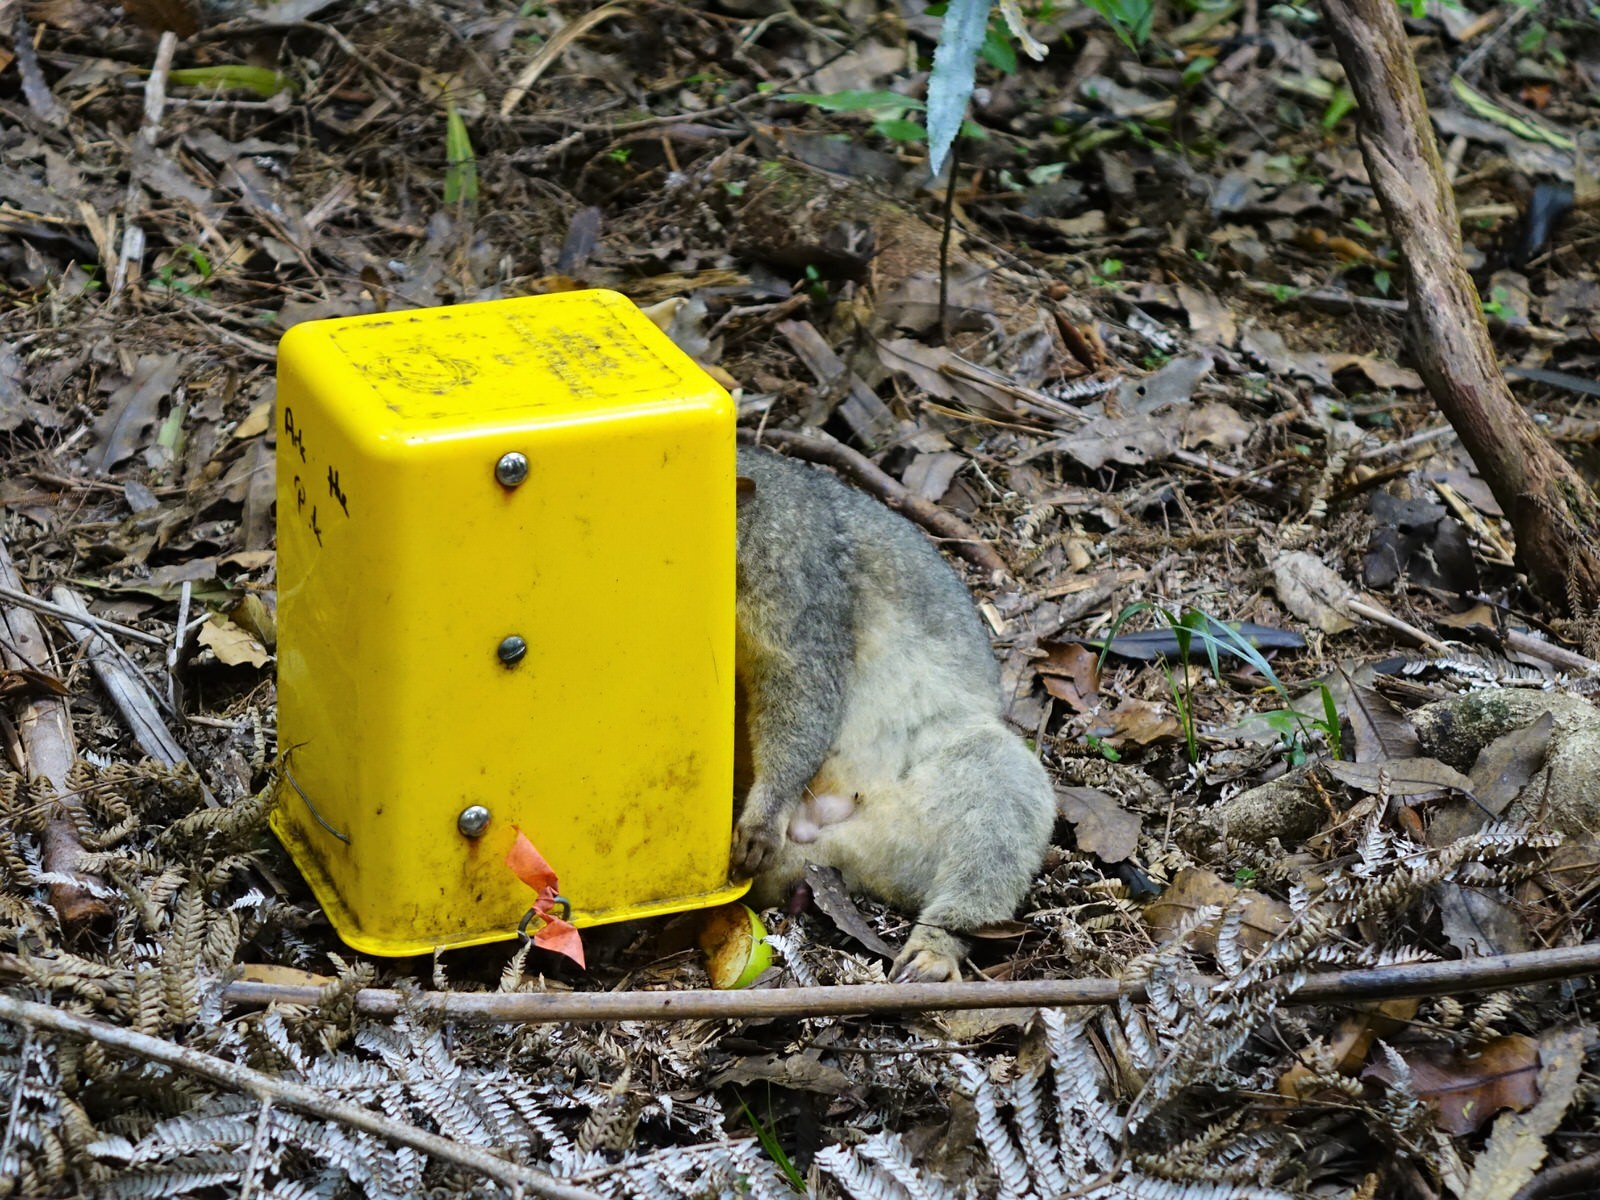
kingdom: Animalia
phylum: Chordata
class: Mammalia
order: Diprotodontia
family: Phalangeridae
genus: Trichosurus
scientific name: Trichosurus vulpecula
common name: Common brushtail
